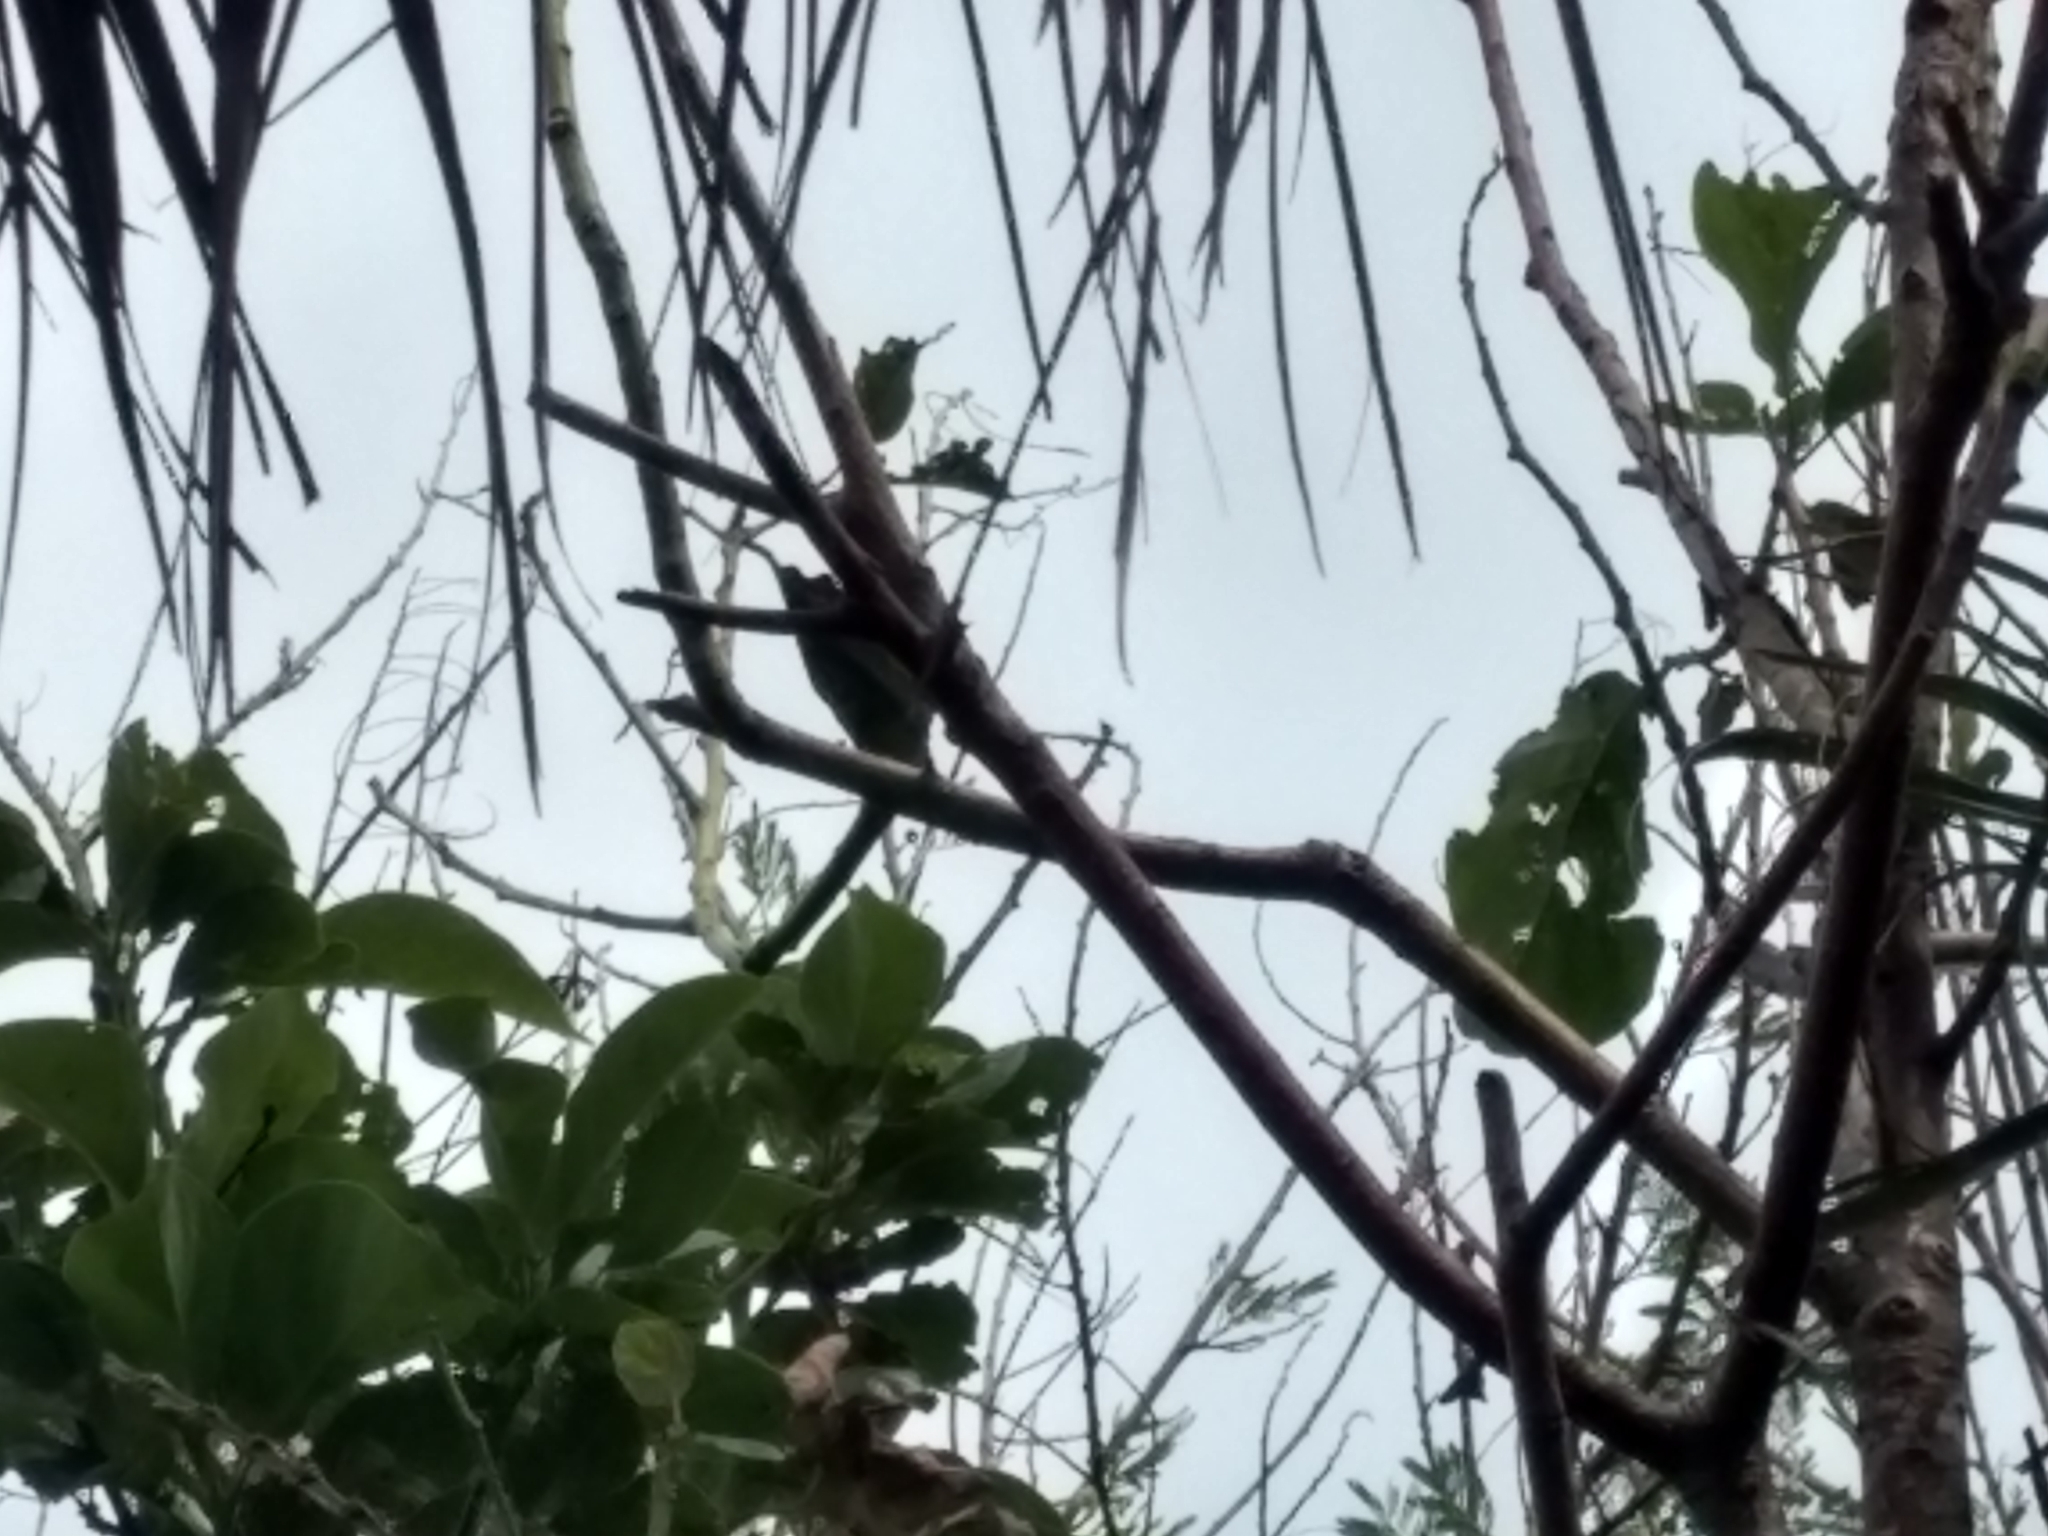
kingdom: Animalia
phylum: Chordata
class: Aves
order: Cuculiformes
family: Cuculidae
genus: Crotophaga
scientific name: Crotophaga sulcirostris
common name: Groove-billed ani
